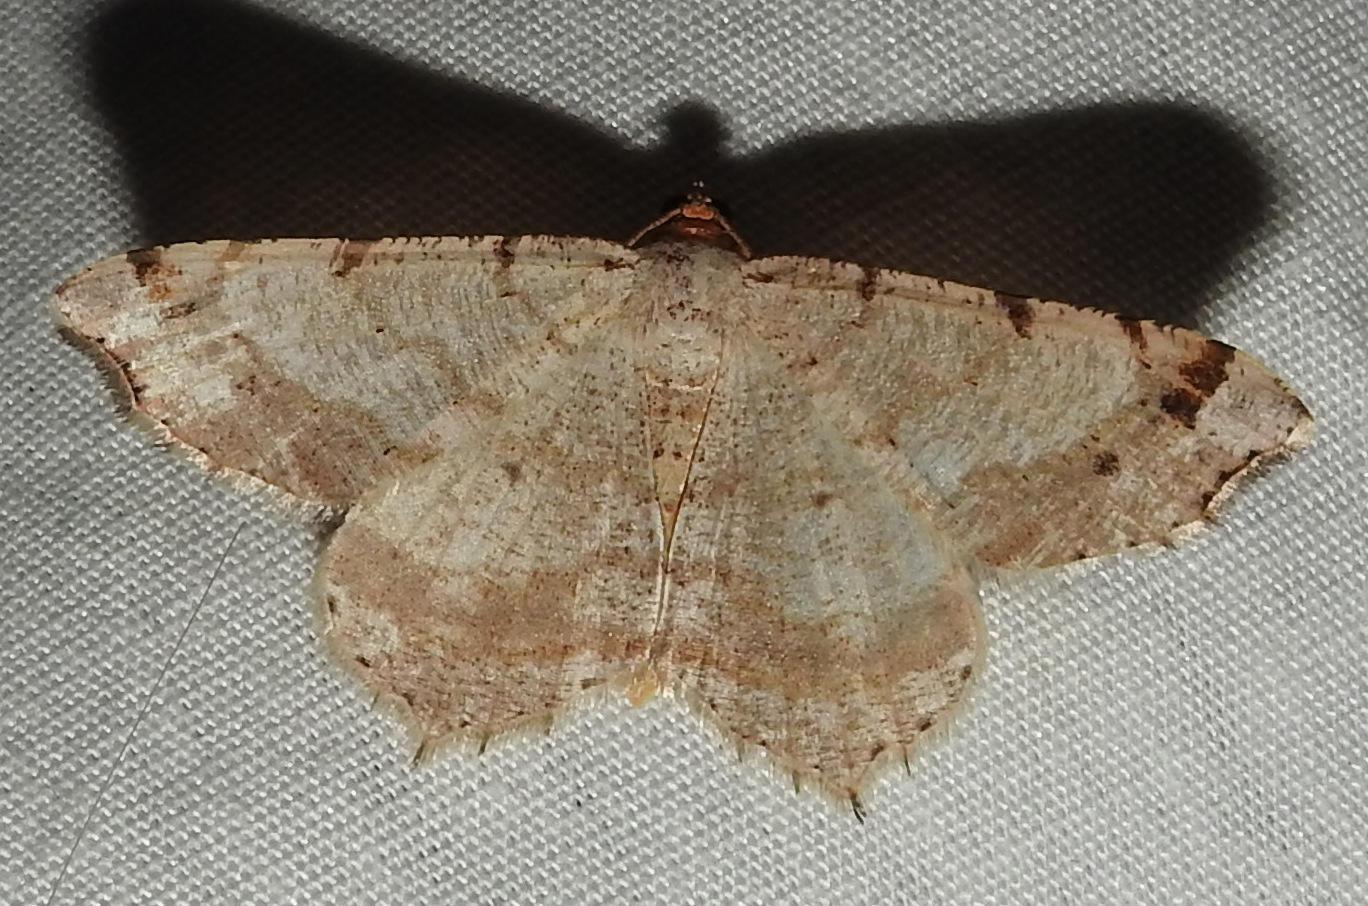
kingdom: Animalia
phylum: Arthropoda
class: Insecta
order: Lepidoptera
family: Geometridae
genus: Macaria
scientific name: Macaria bisignata
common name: Red-headed inchworm
